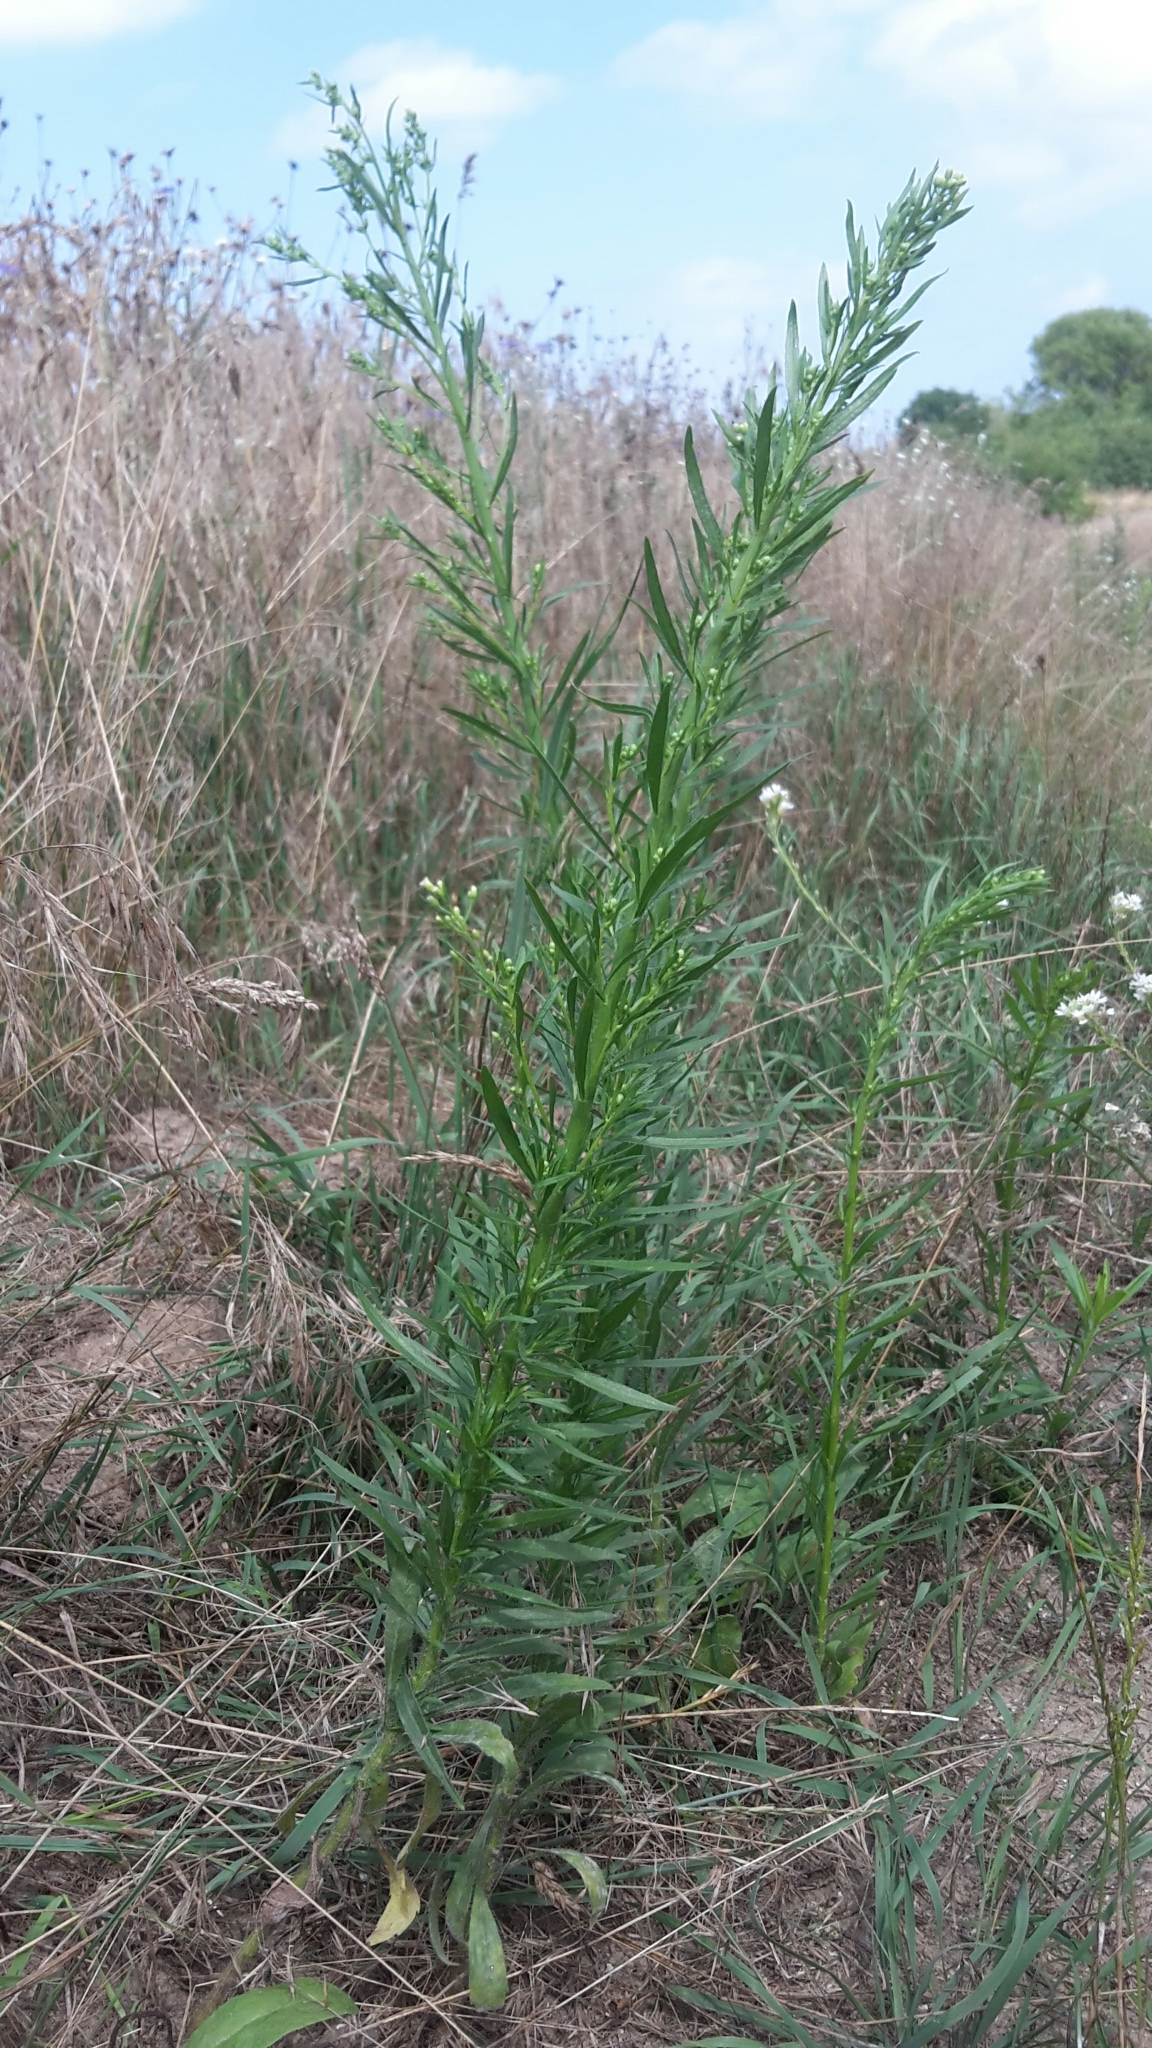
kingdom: Plantae
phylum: Tracheophyta
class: Magnoliopsida
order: Asterales
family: Asteraceae
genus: Erigeron
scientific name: Erigeron canadensis
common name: Canadian fleabane
